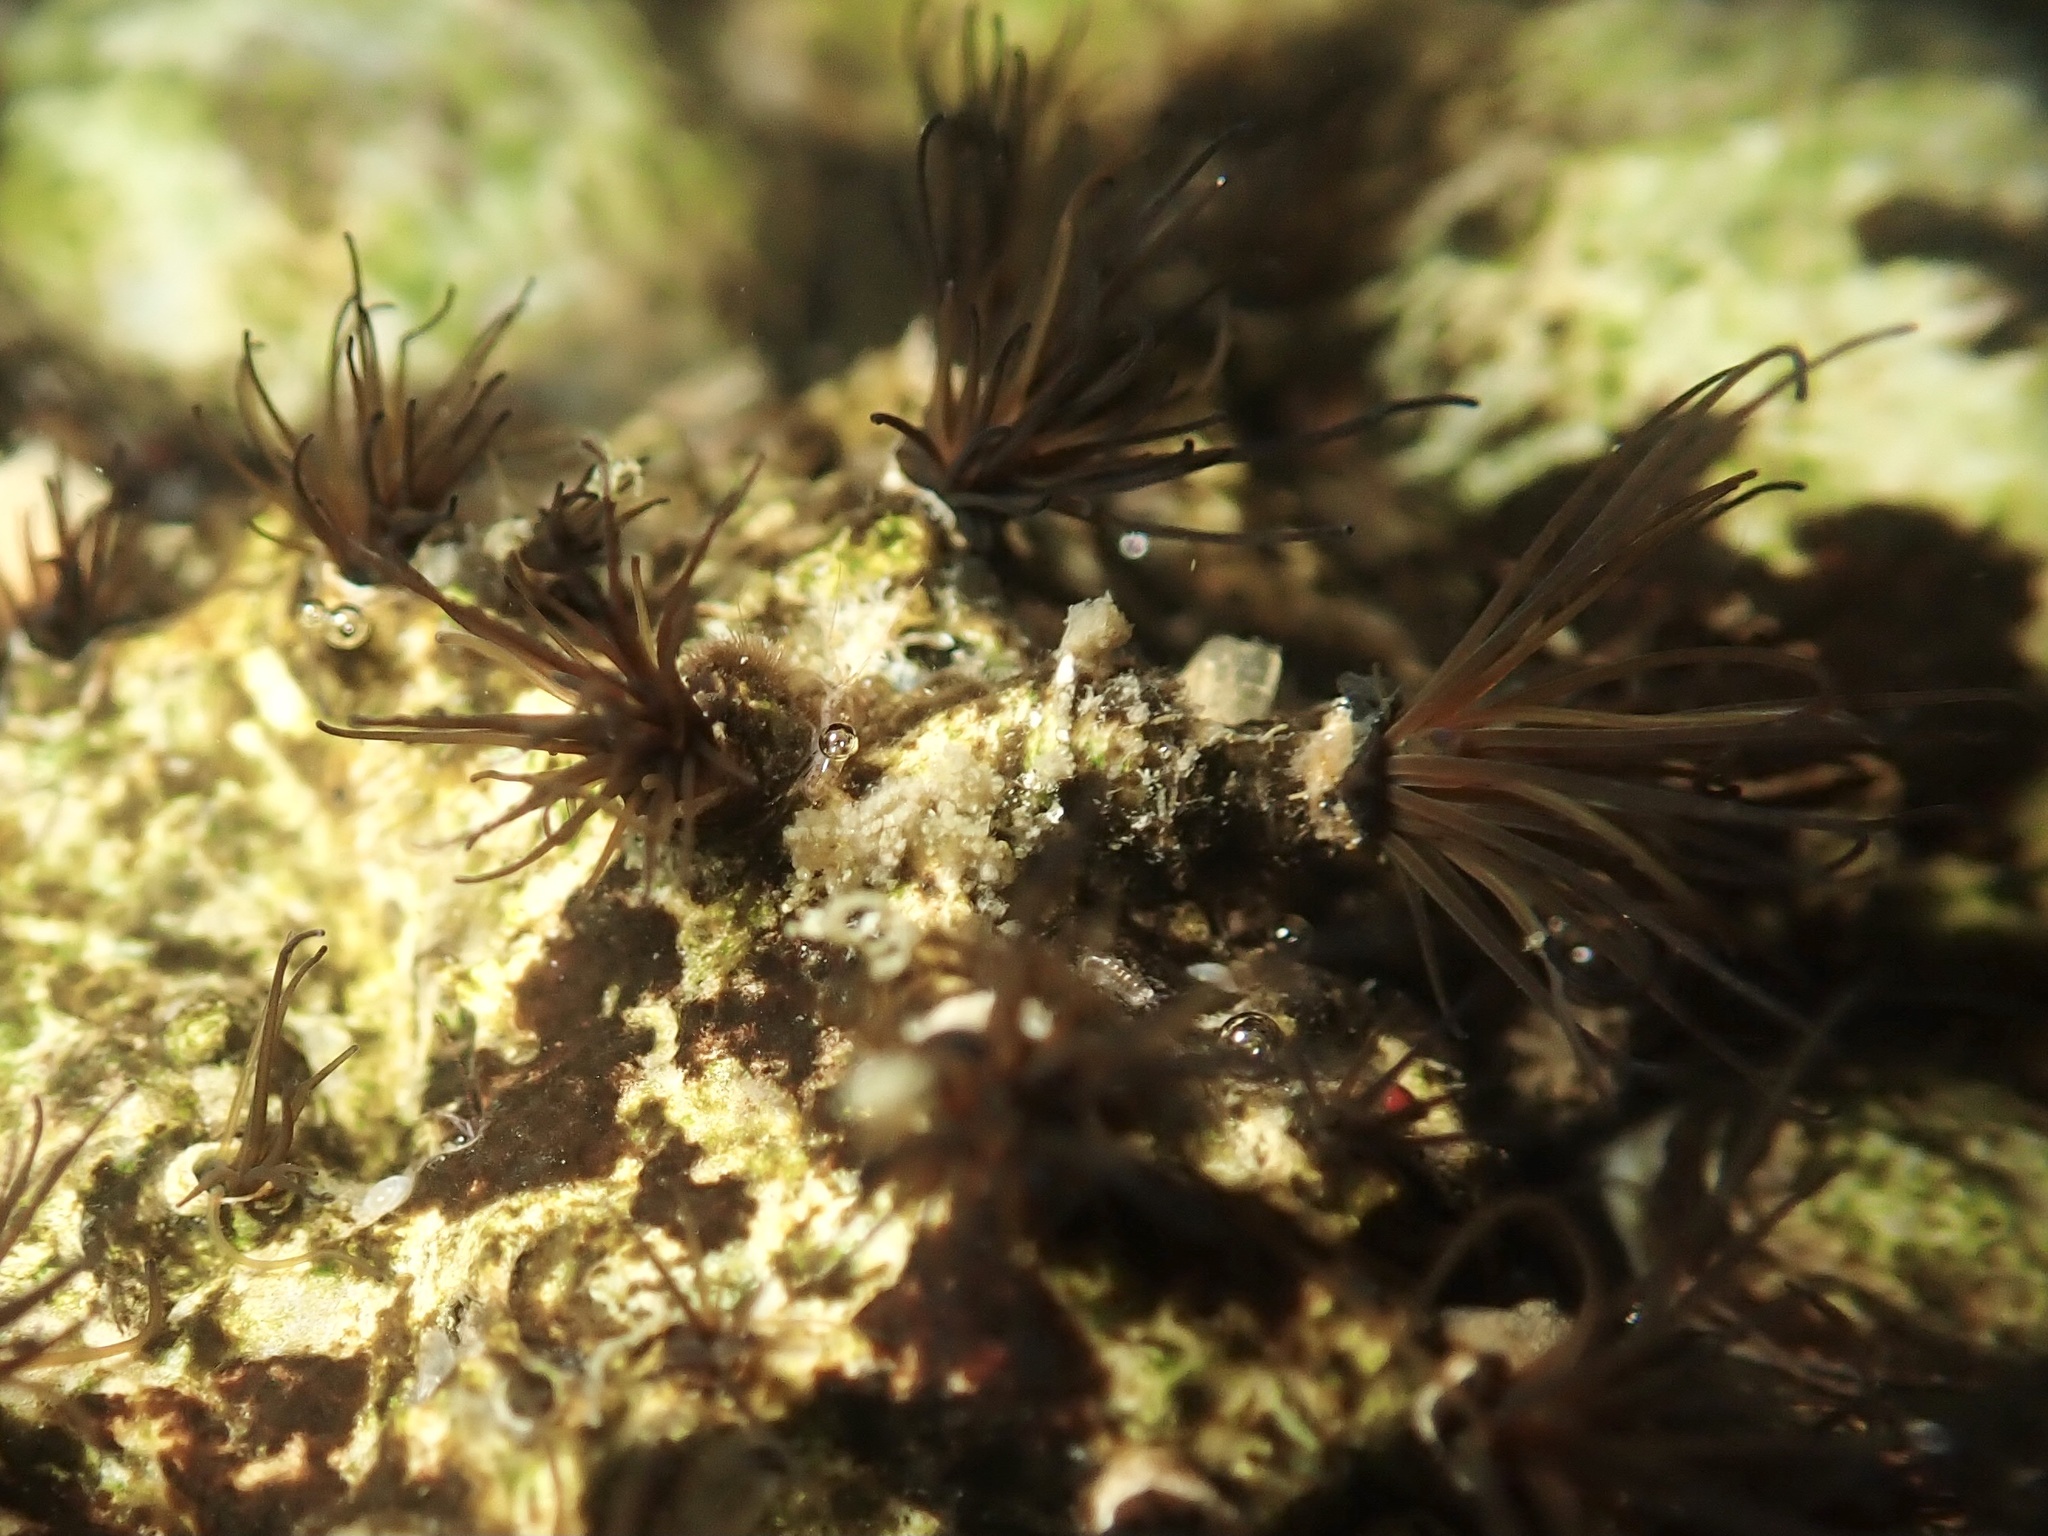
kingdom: Animalia
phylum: Annelida
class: Polychaeta
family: Cirratulidae
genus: Dodecaceria
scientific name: Dodecaceria pacifica
